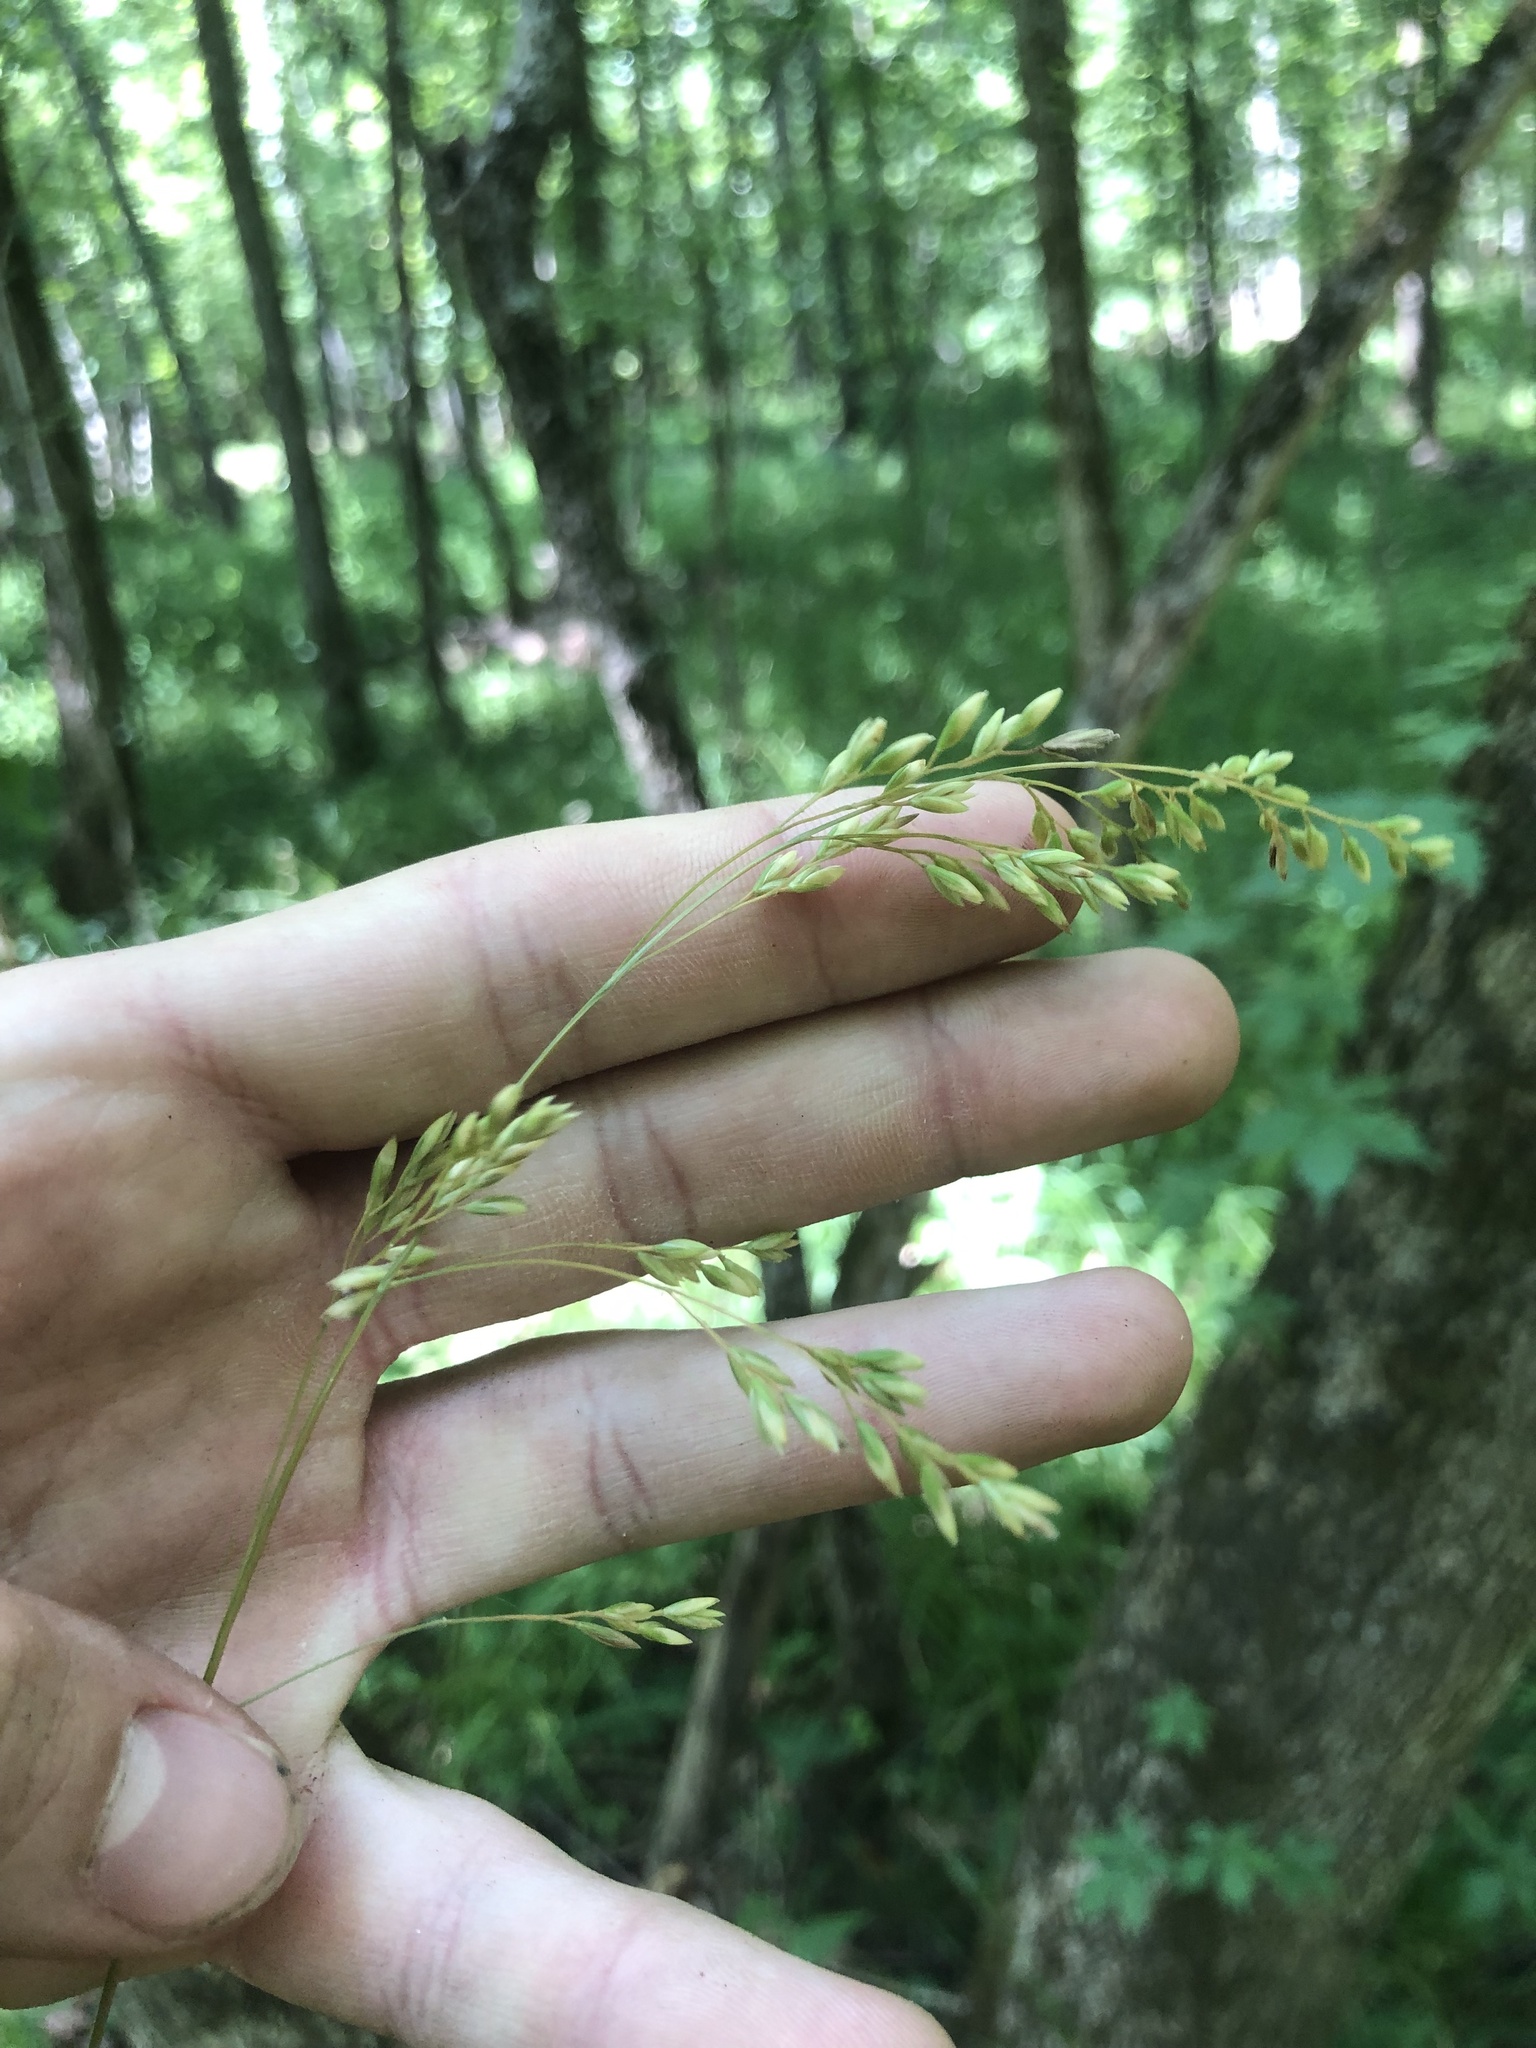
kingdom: Plantae
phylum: Tracheophyta
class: Liliopsida
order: Poales
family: Poaceae
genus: Festuca
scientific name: Festuca paradoxa
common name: Cluster fescue
